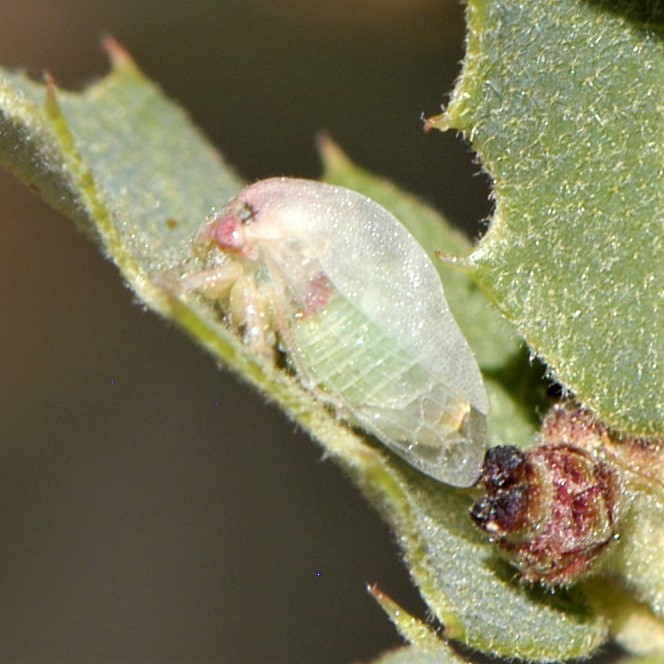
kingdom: Animalia
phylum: Arthropoda
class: Insecta
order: Hemiptera
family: Membracidae
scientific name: Membracidae
